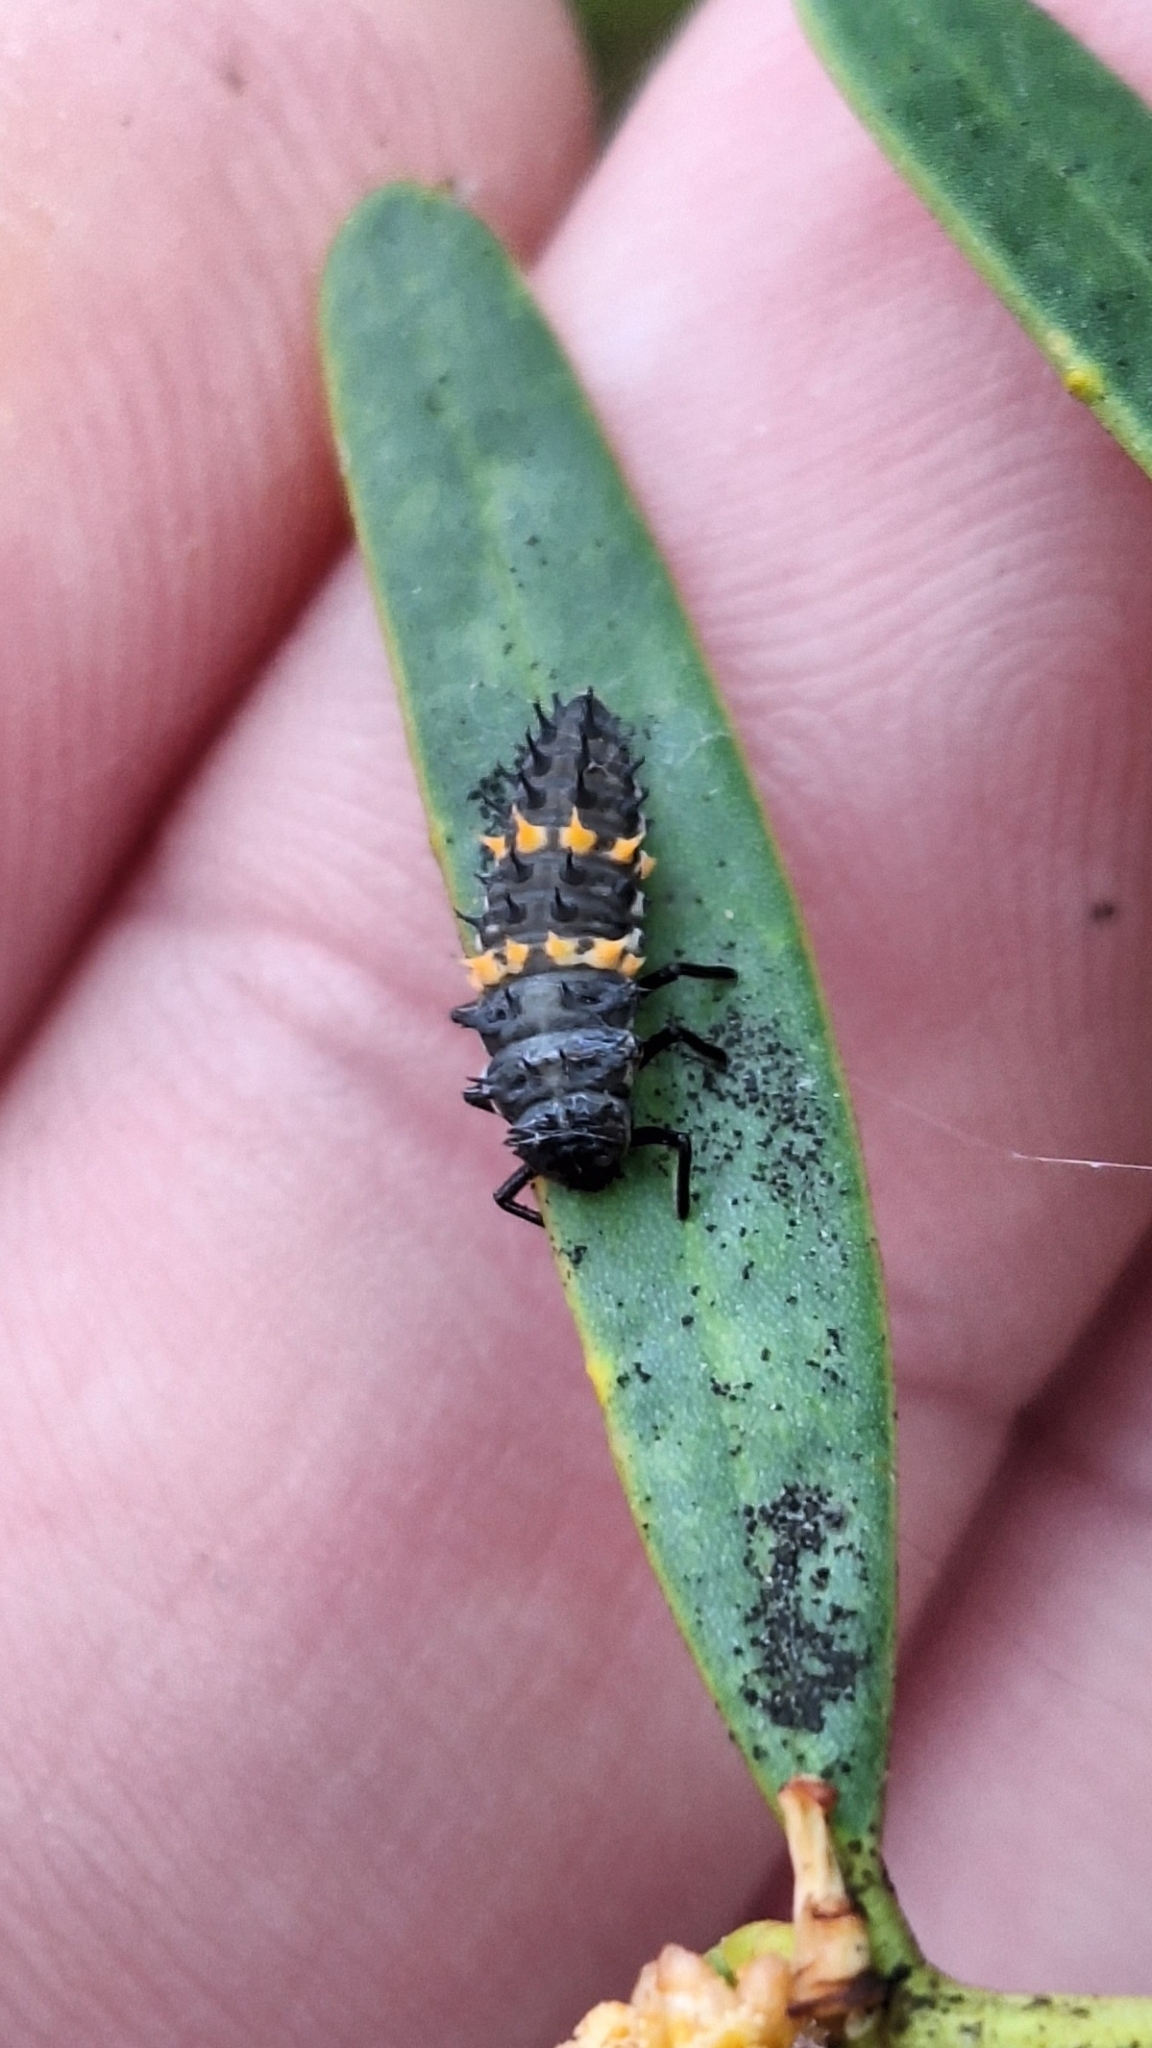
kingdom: Animalia
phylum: Arthropoda
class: Insecta
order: Coleoptera
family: Coccinellidae
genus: Harmonia
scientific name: Harmonia conformis
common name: Common spotted ladybird beetle
